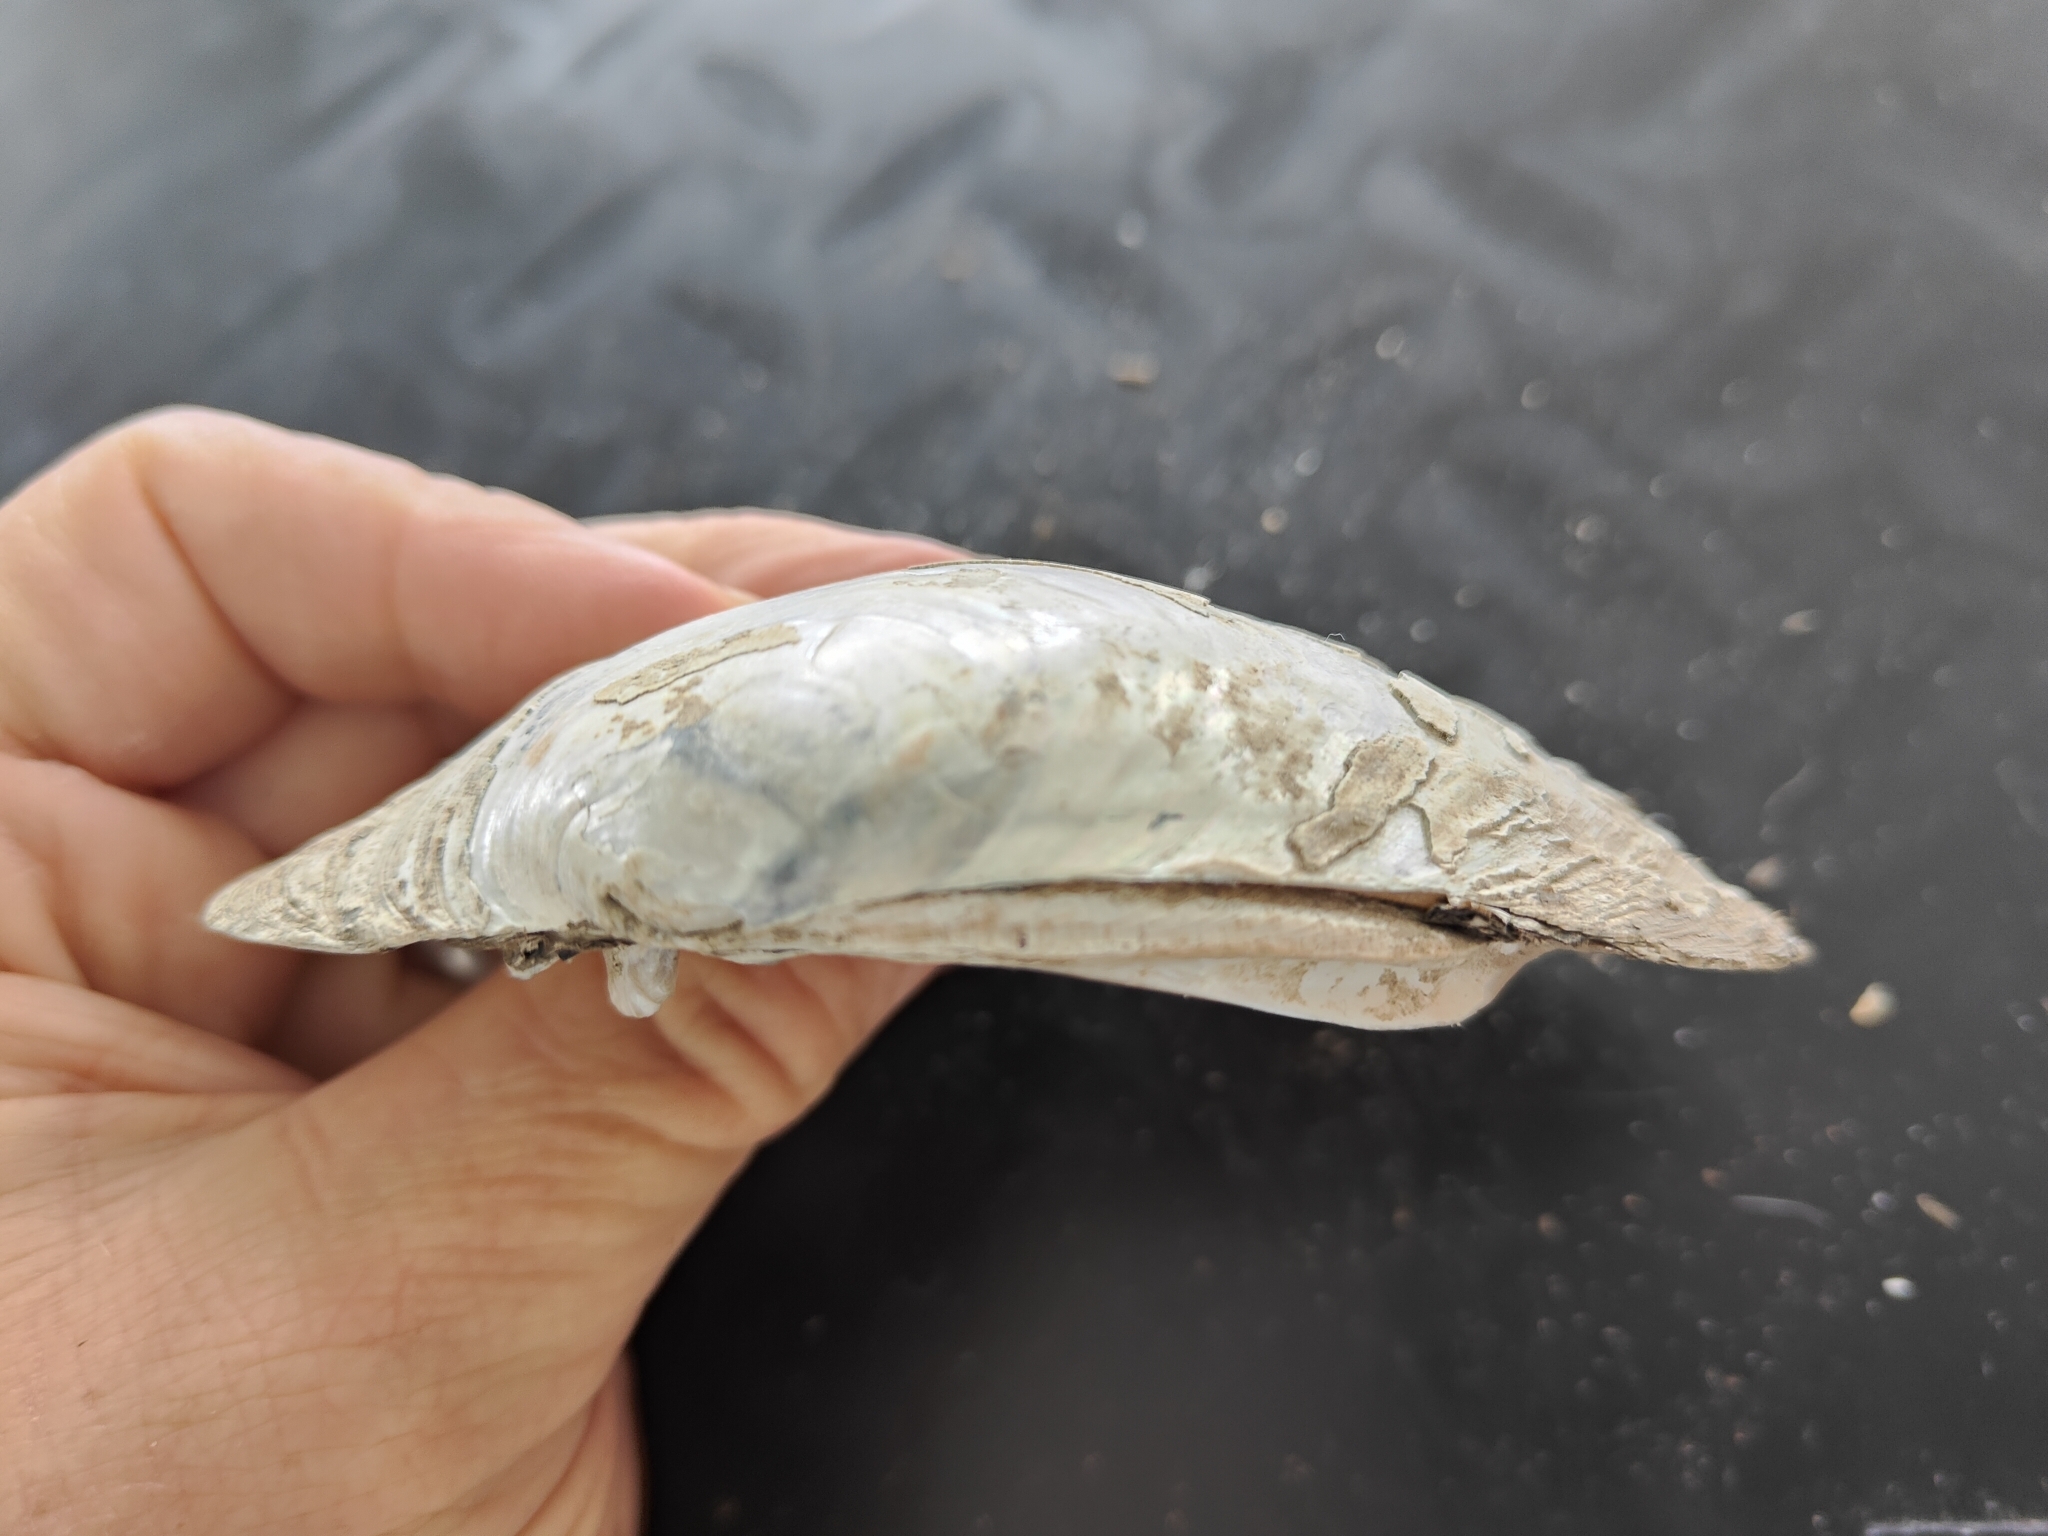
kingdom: Animalia
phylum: Mollusca
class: Bivalvia
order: Unionida
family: Unionidae
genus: Lampsilis
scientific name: Lampsilis cardium
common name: Plain pocketbook
